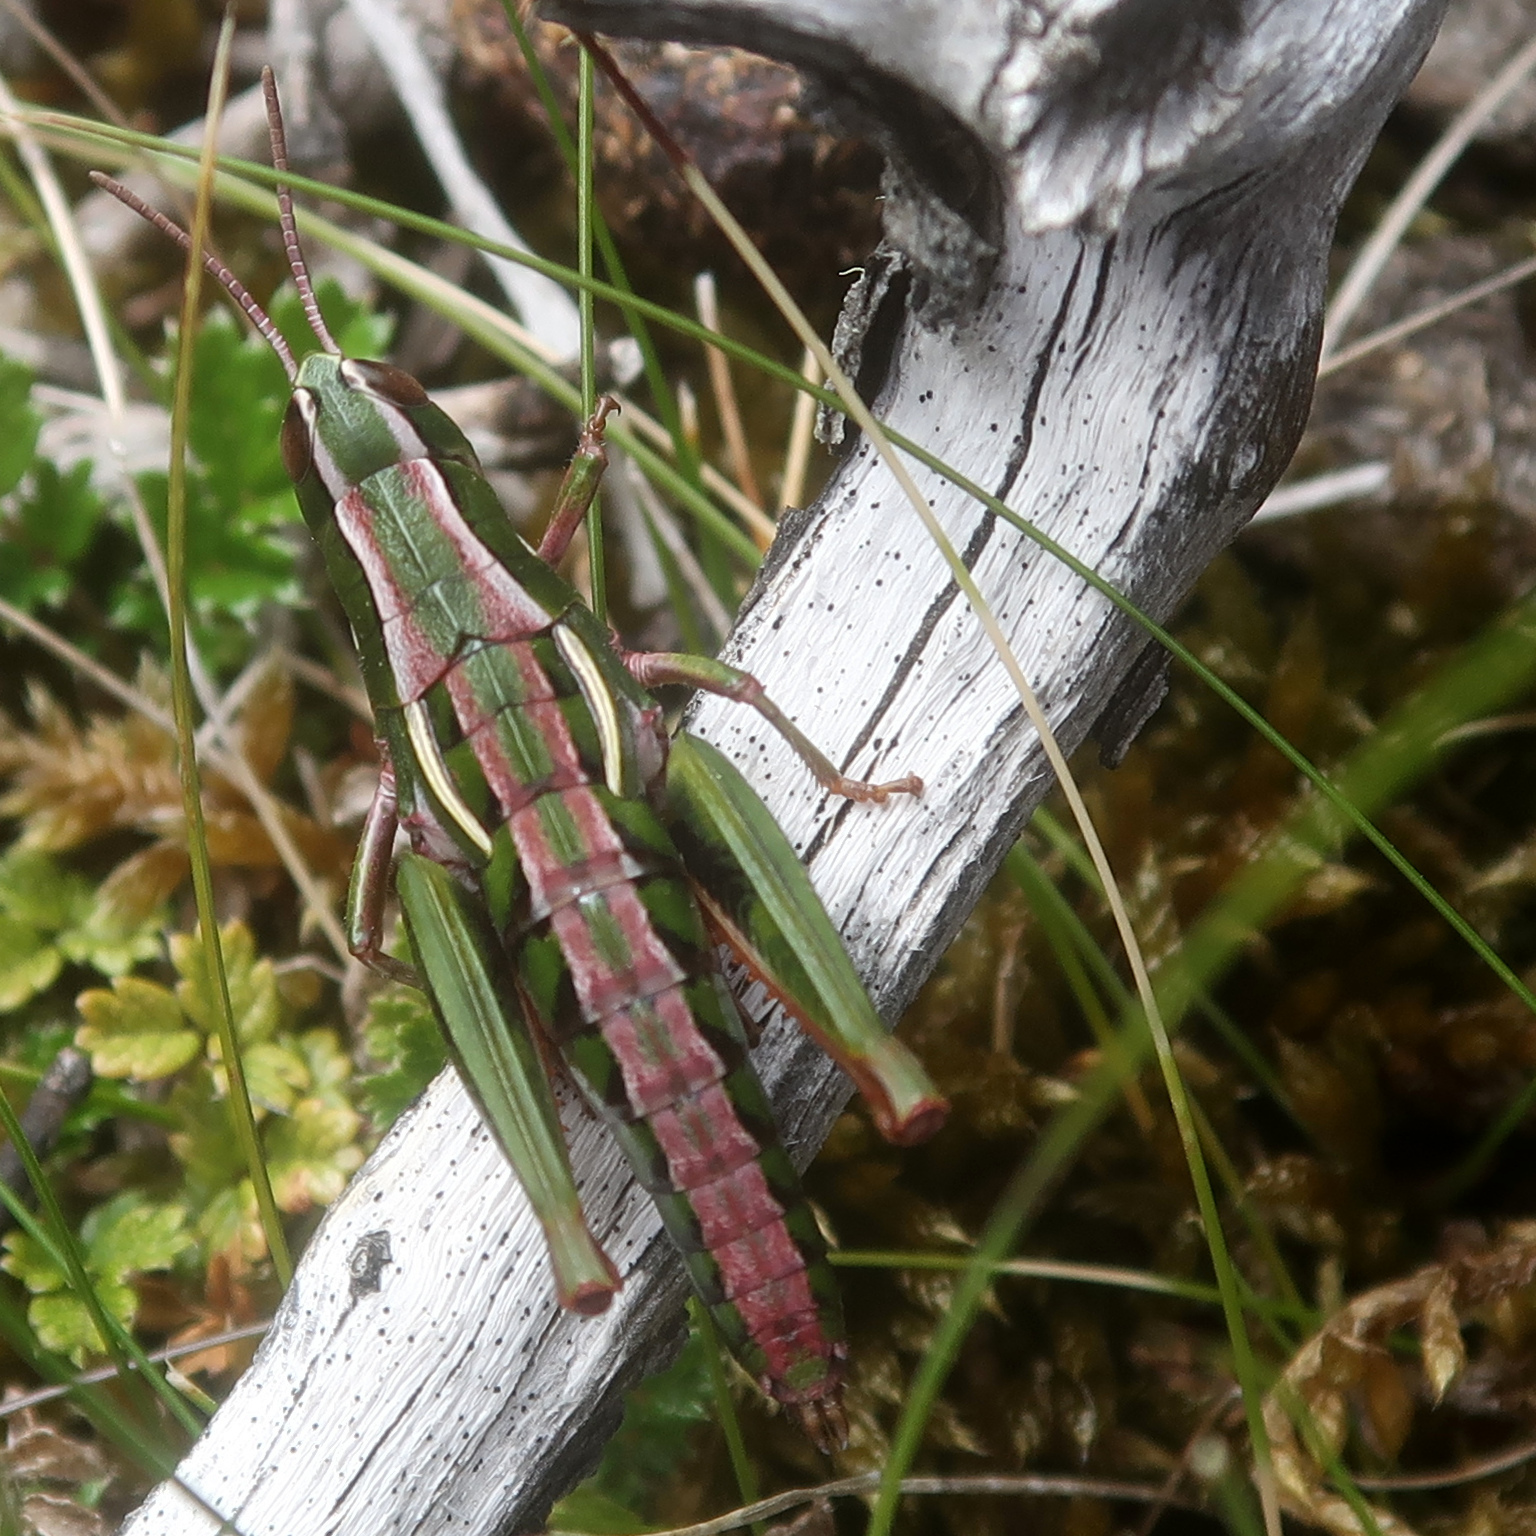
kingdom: Animalia
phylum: Arthropoda
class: Insecta
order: Orthoptera
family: Acrididae
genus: Russalpia
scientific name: Russalpia albertisi
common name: Tassie hopper
